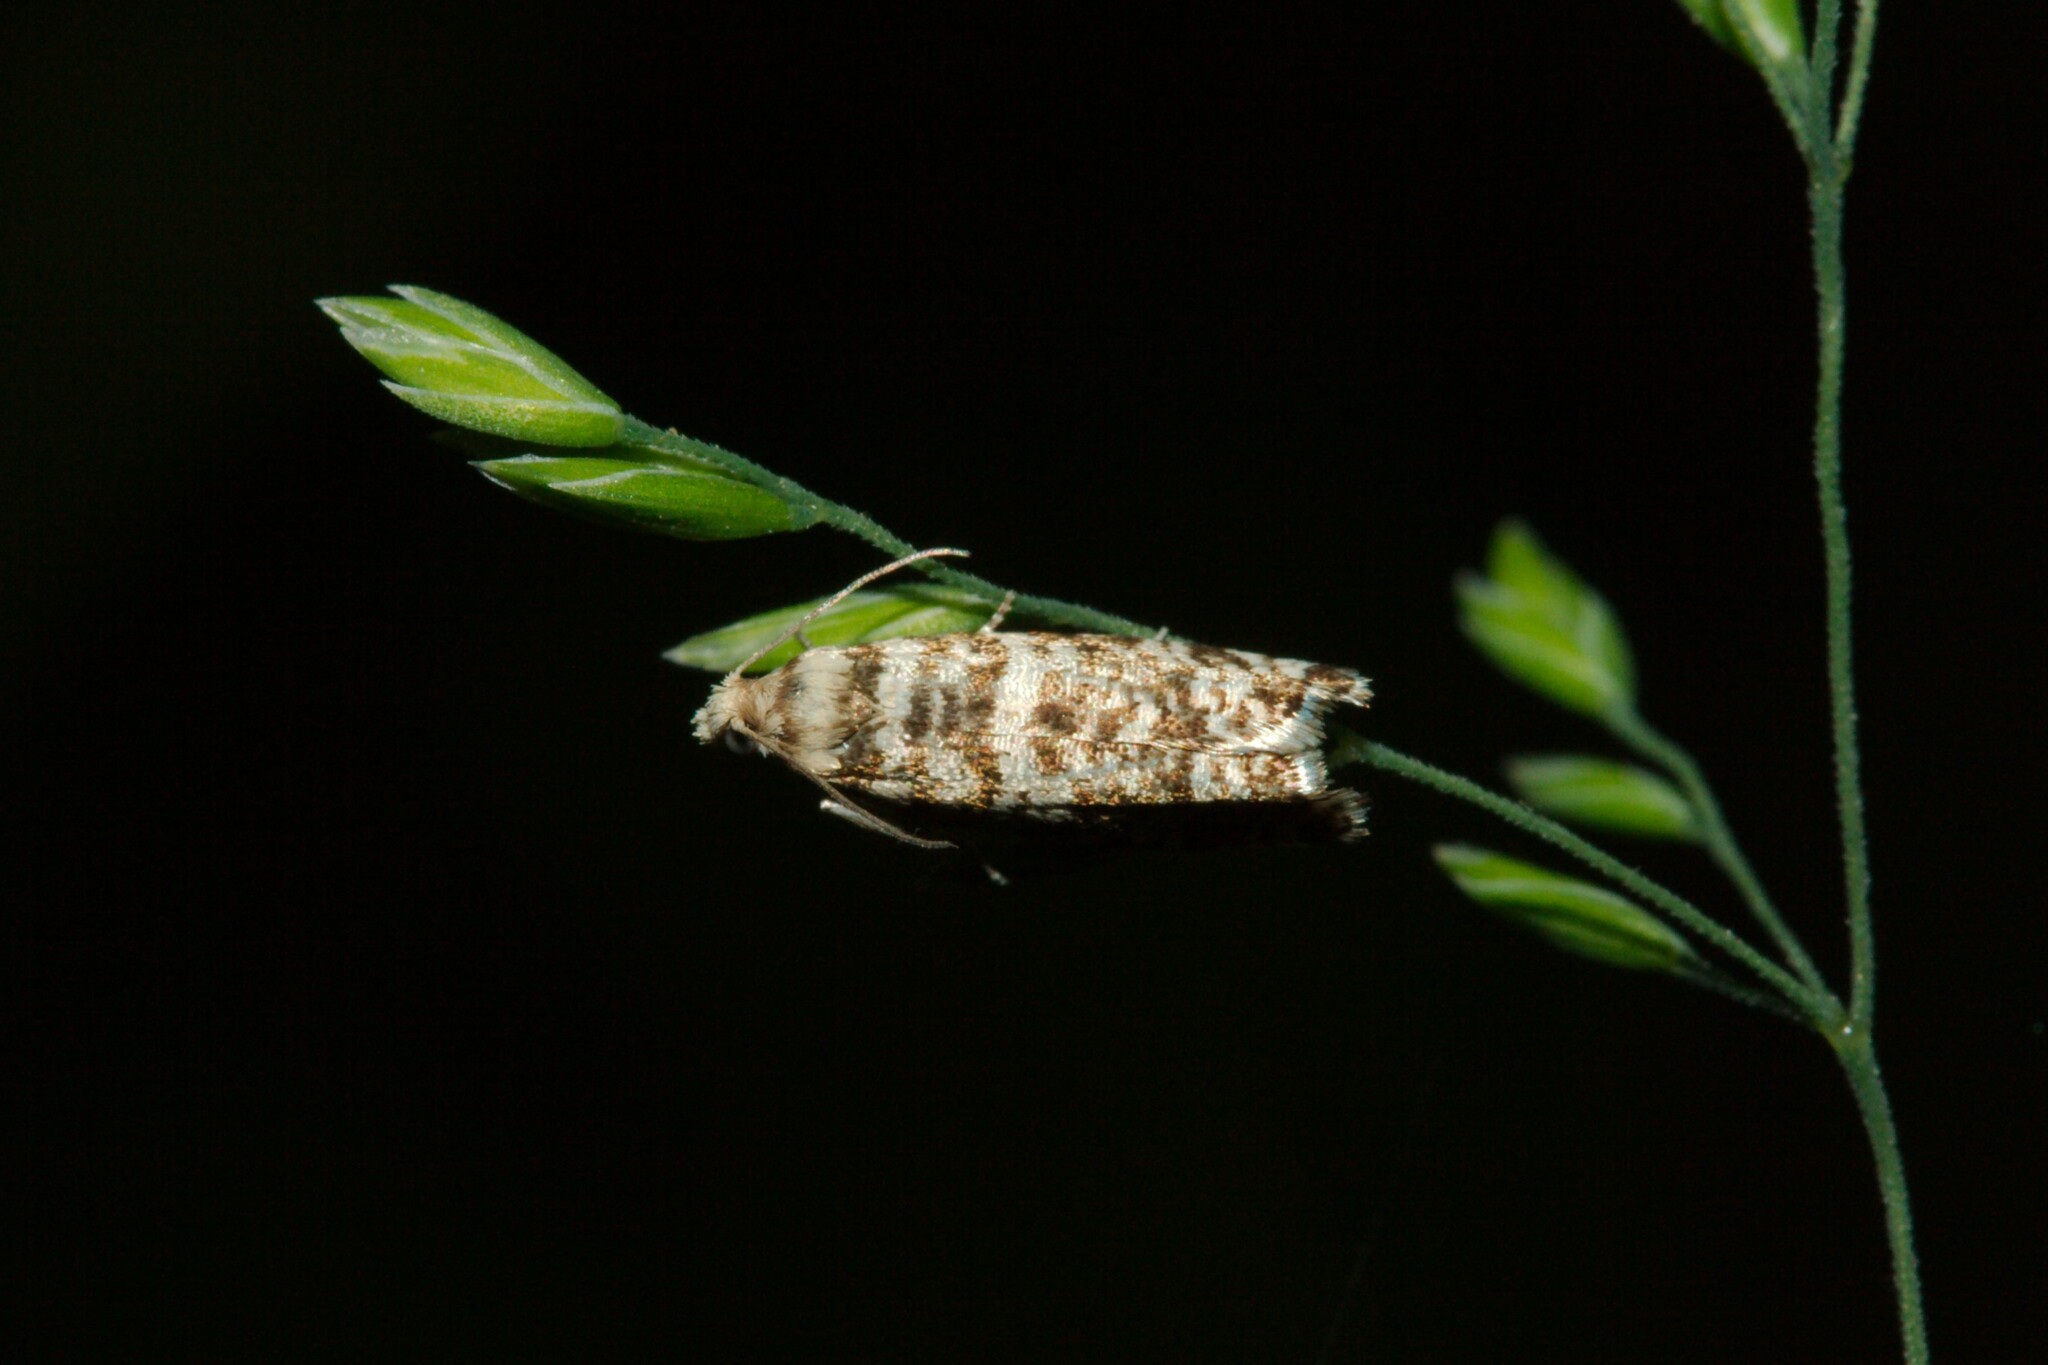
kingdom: Animalia
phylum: Arthropoda
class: Insecta
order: Lepidoptera
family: Tortricidae
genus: Epinotia
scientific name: Epinotia tedella
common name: Common spruce bell
